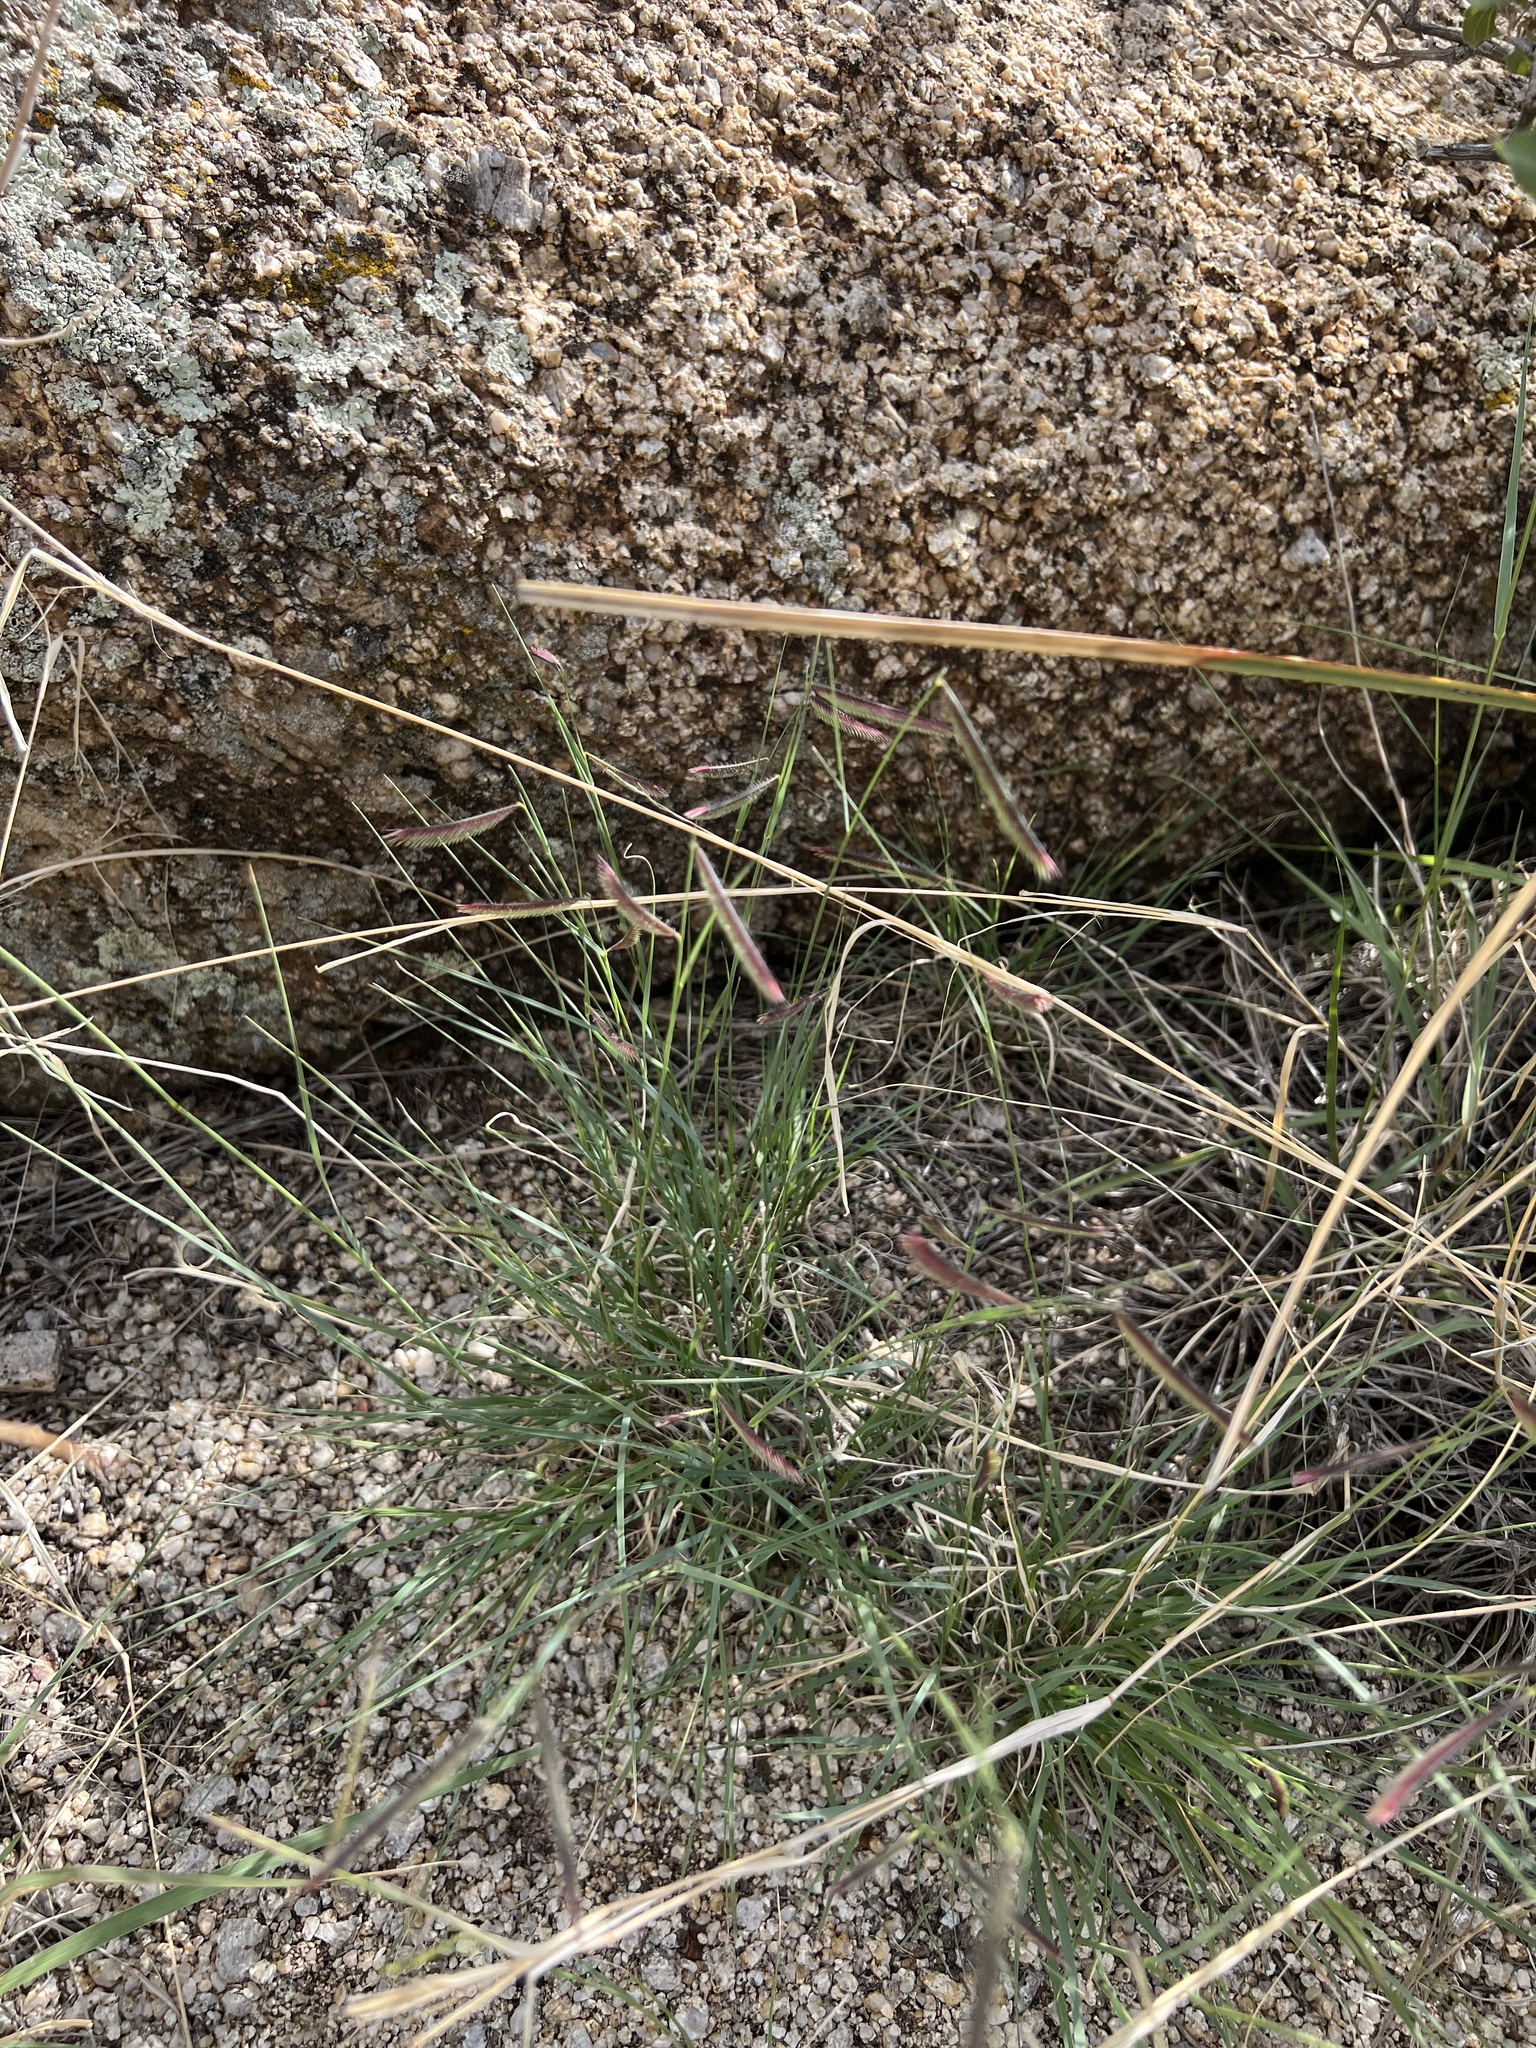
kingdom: Plantae
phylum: Tracheophyta
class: Liliopsida
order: Poales
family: Poaceae
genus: Bouteloua
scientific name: Bouteloua gracilis
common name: Blue grama
